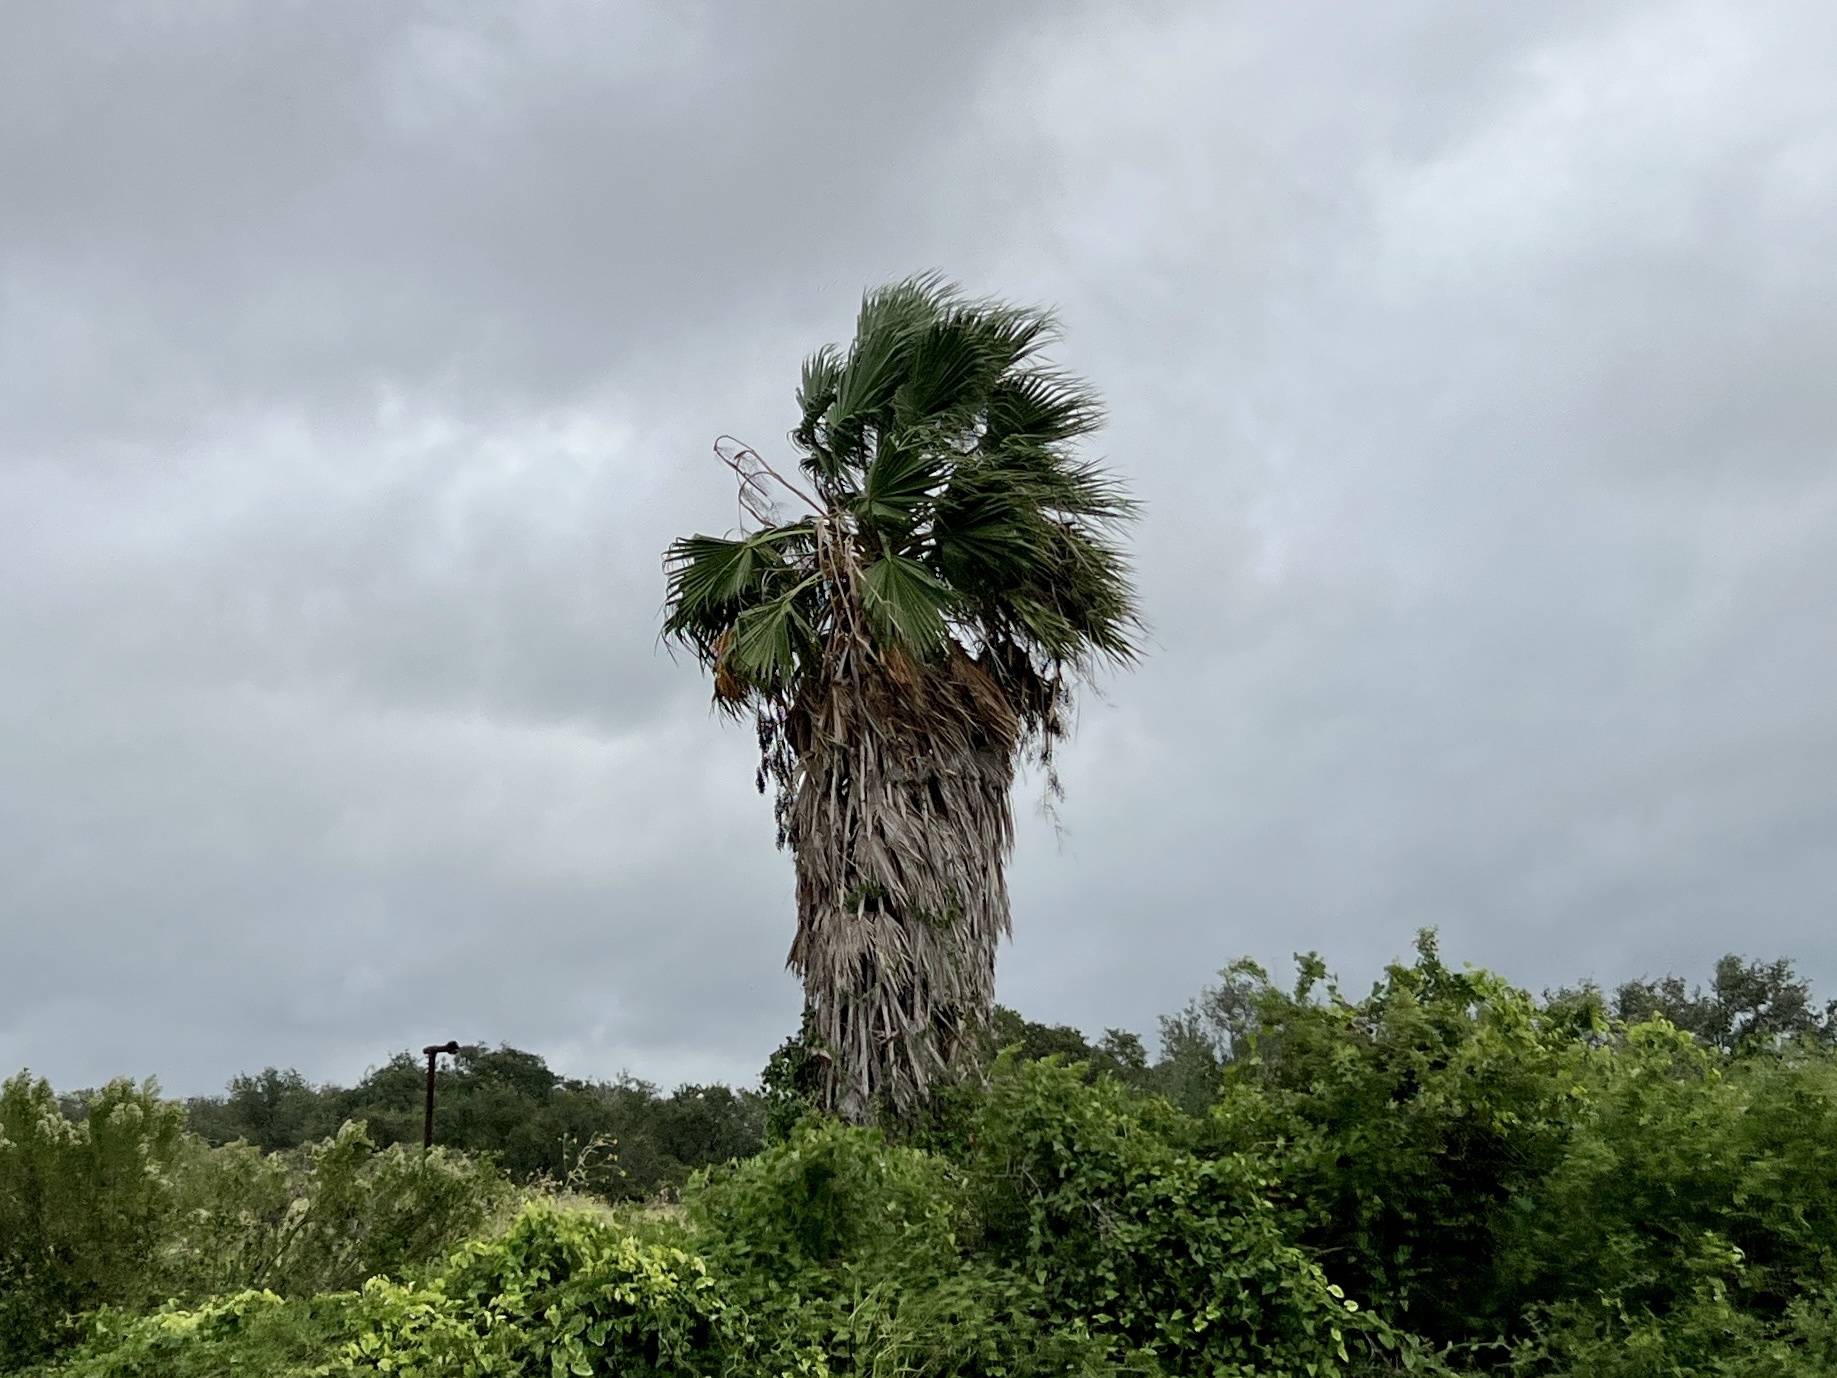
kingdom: Plantae
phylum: Tracheophyta
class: Liliopsida
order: Arecales
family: Arecaceae
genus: Washingtonia
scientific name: Washingtonia robusta
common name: Mexican fan palm
